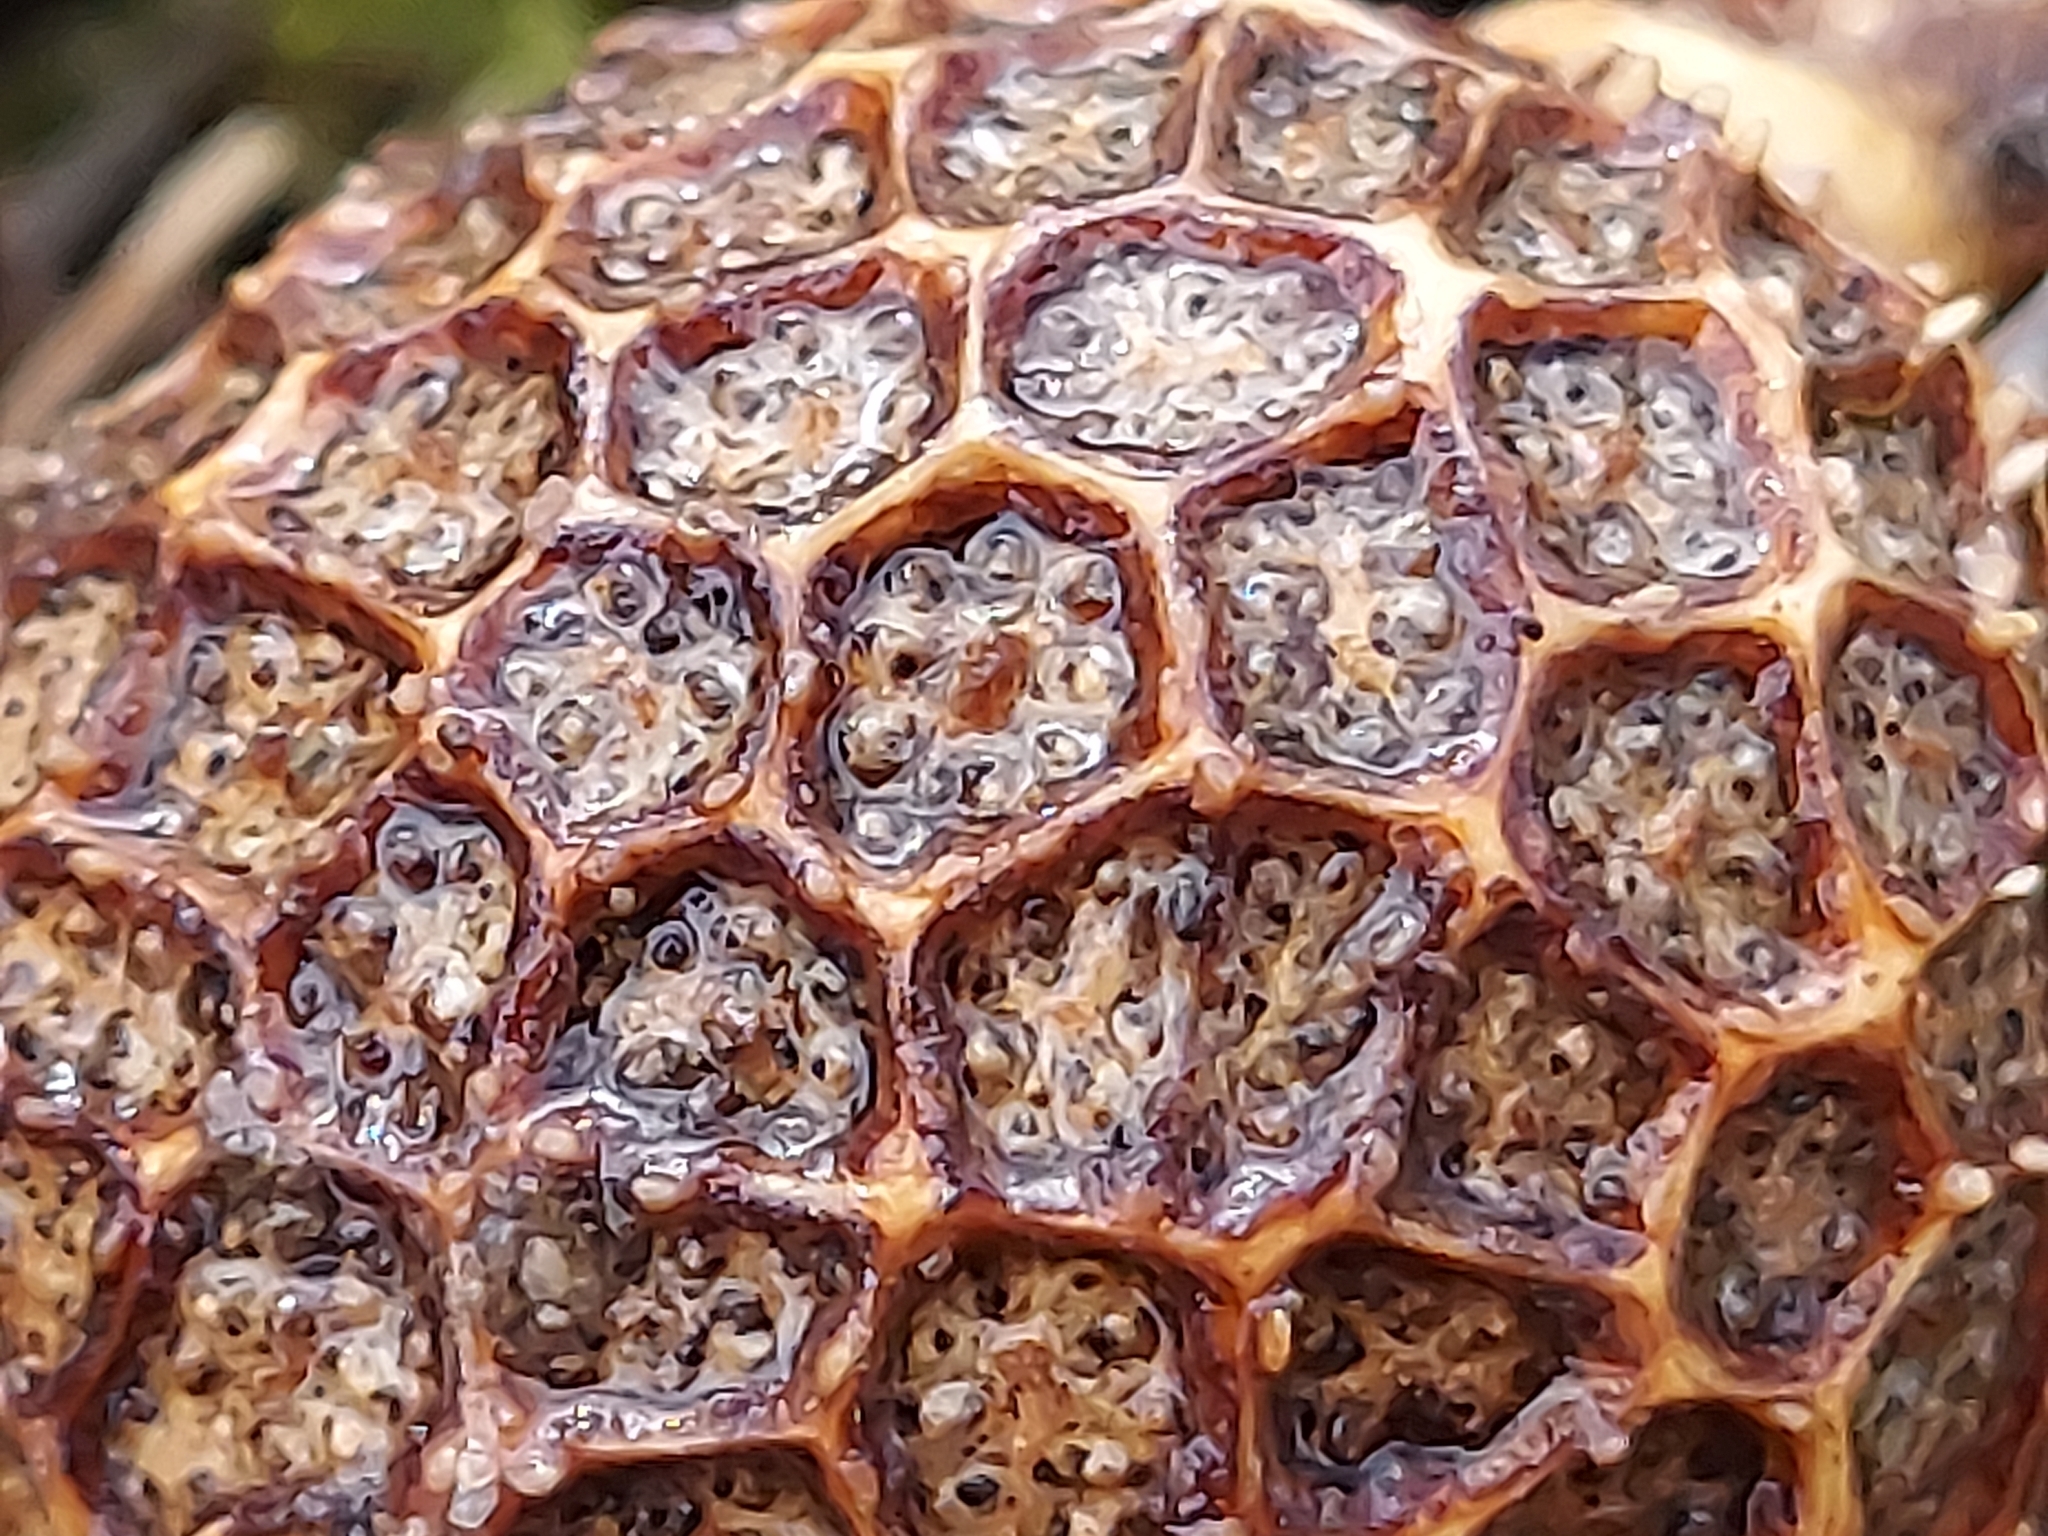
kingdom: Plantae
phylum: Tracheophyta
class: Magnoliopsida
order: Proteales
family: Platanaceae
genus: Platanus
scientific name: Platanus occidentalis
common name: American sycamore
